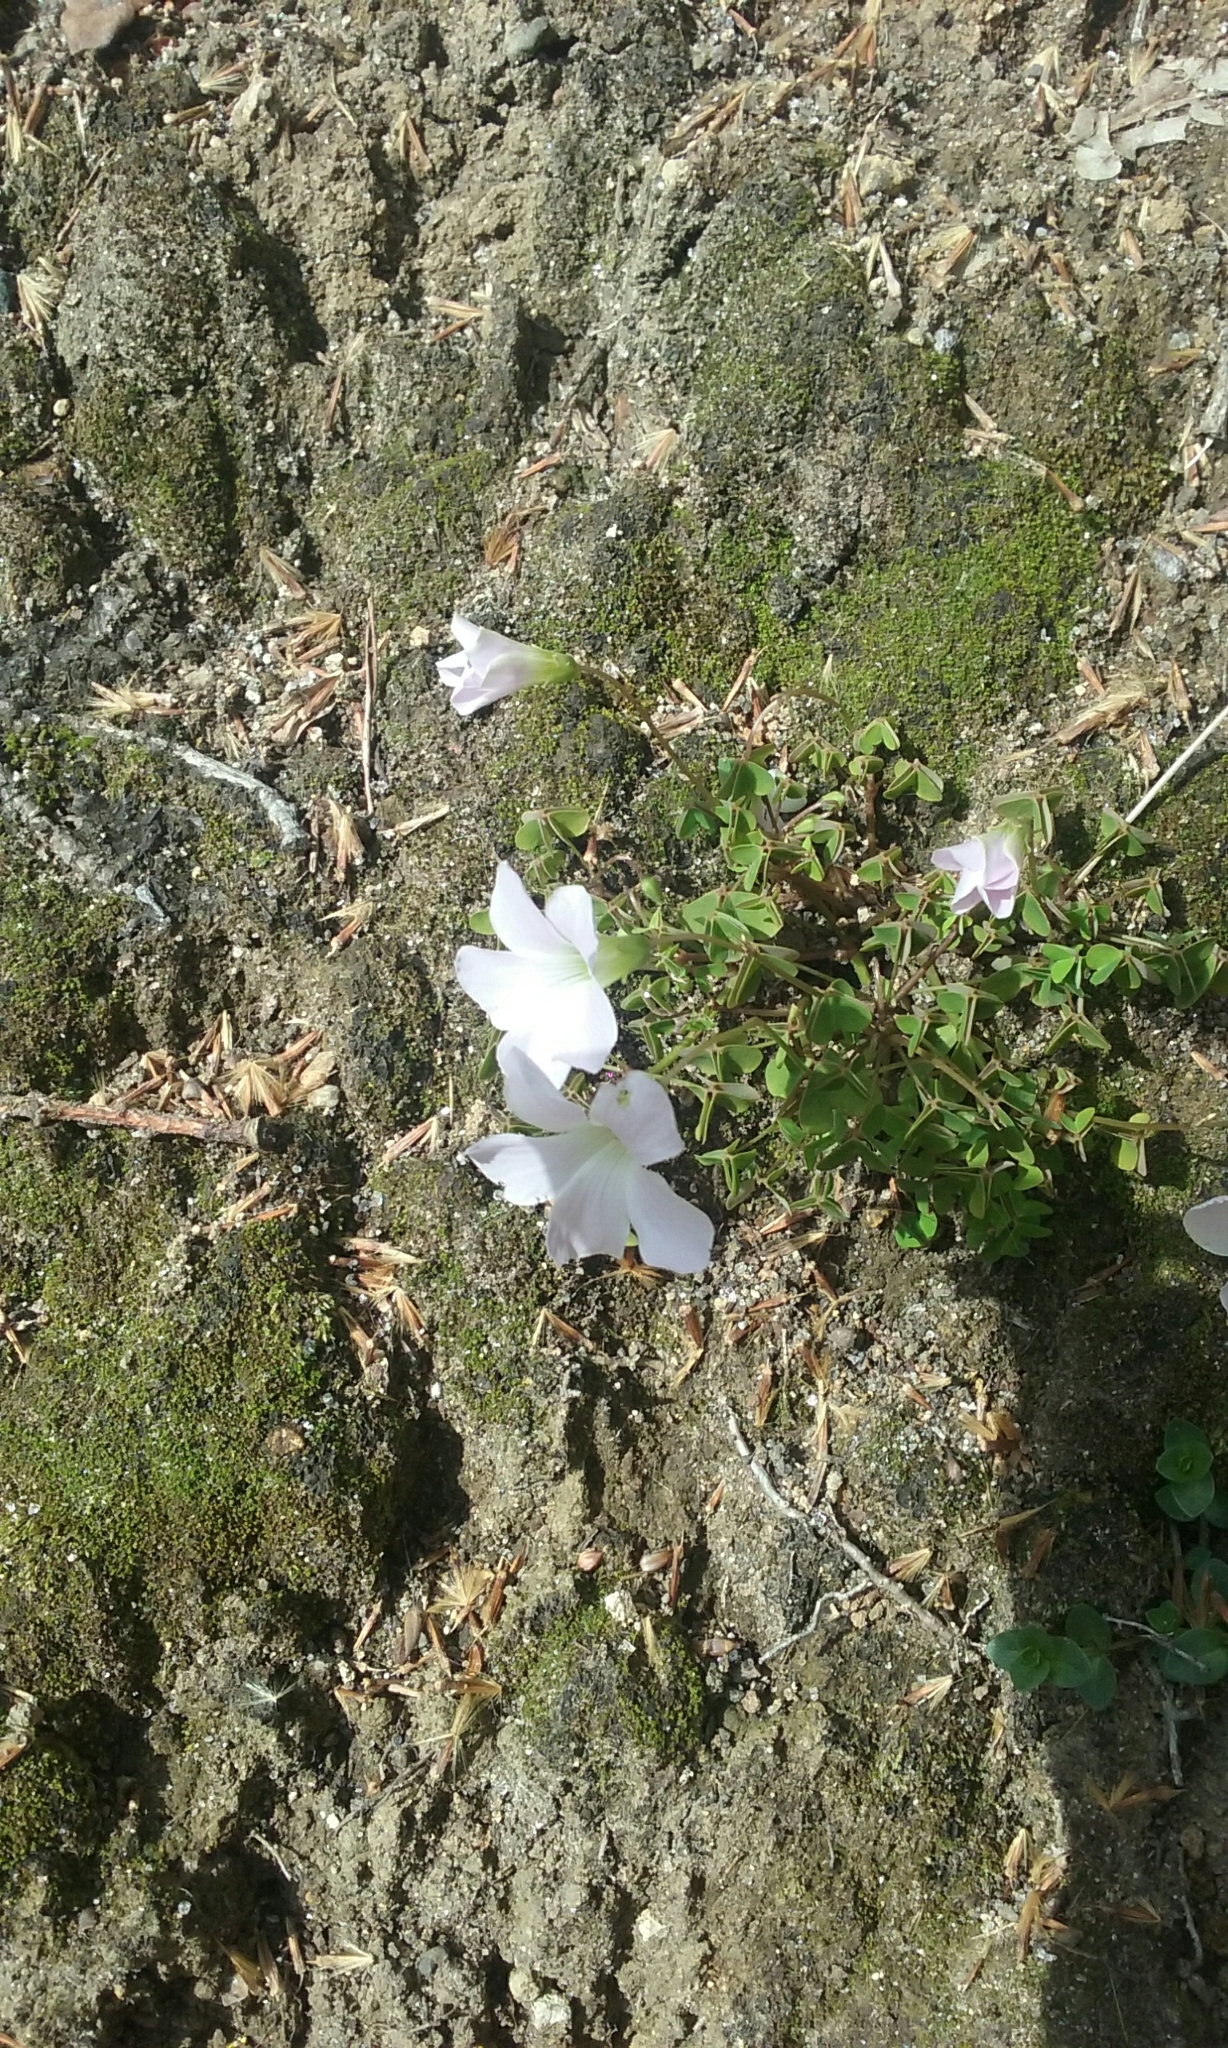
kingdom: Plantae
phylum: Tracheophyta
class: Magnoliopsida
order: Oxalidales
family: Oxalidaceae
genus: Oxalis
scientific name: Oxalis incarnata
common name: Pale pink-sorrel
